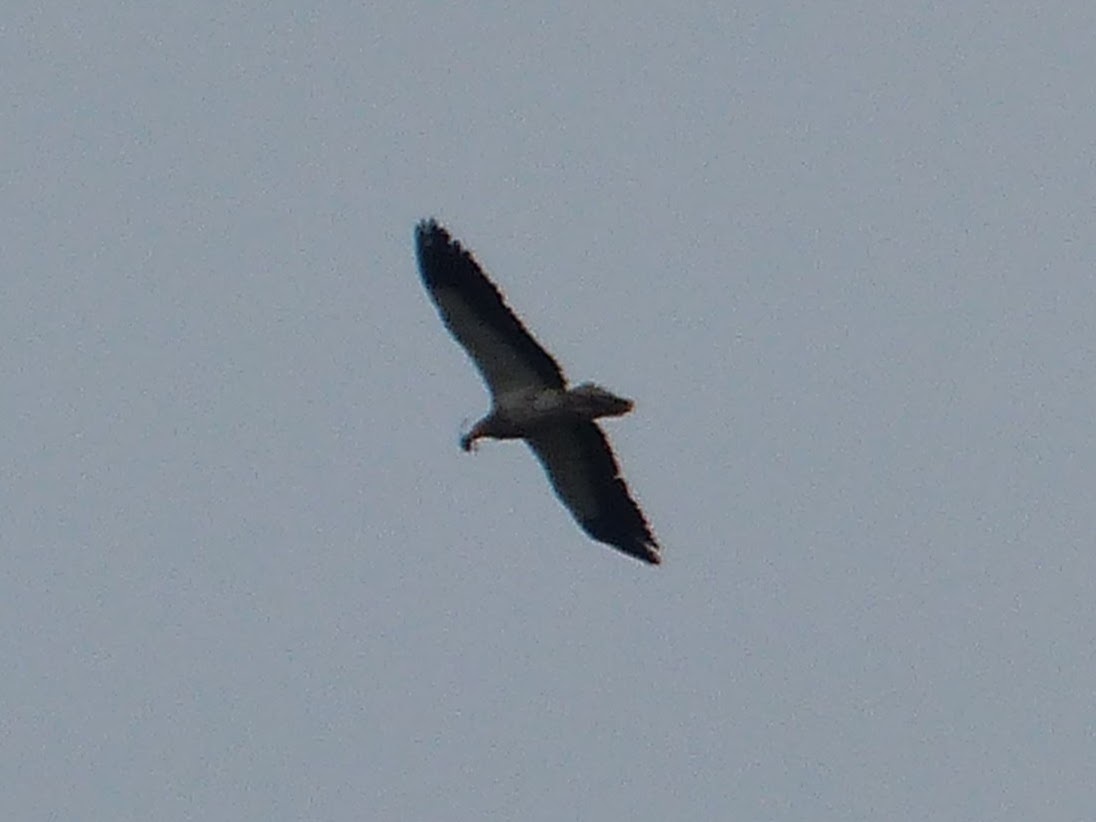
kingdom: Animalia
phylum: Chordata
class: Aves
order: Accipitriformes
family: Accipitridae
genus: Neophron
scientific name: Neophron percnopterus
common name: Egyptian vulture
